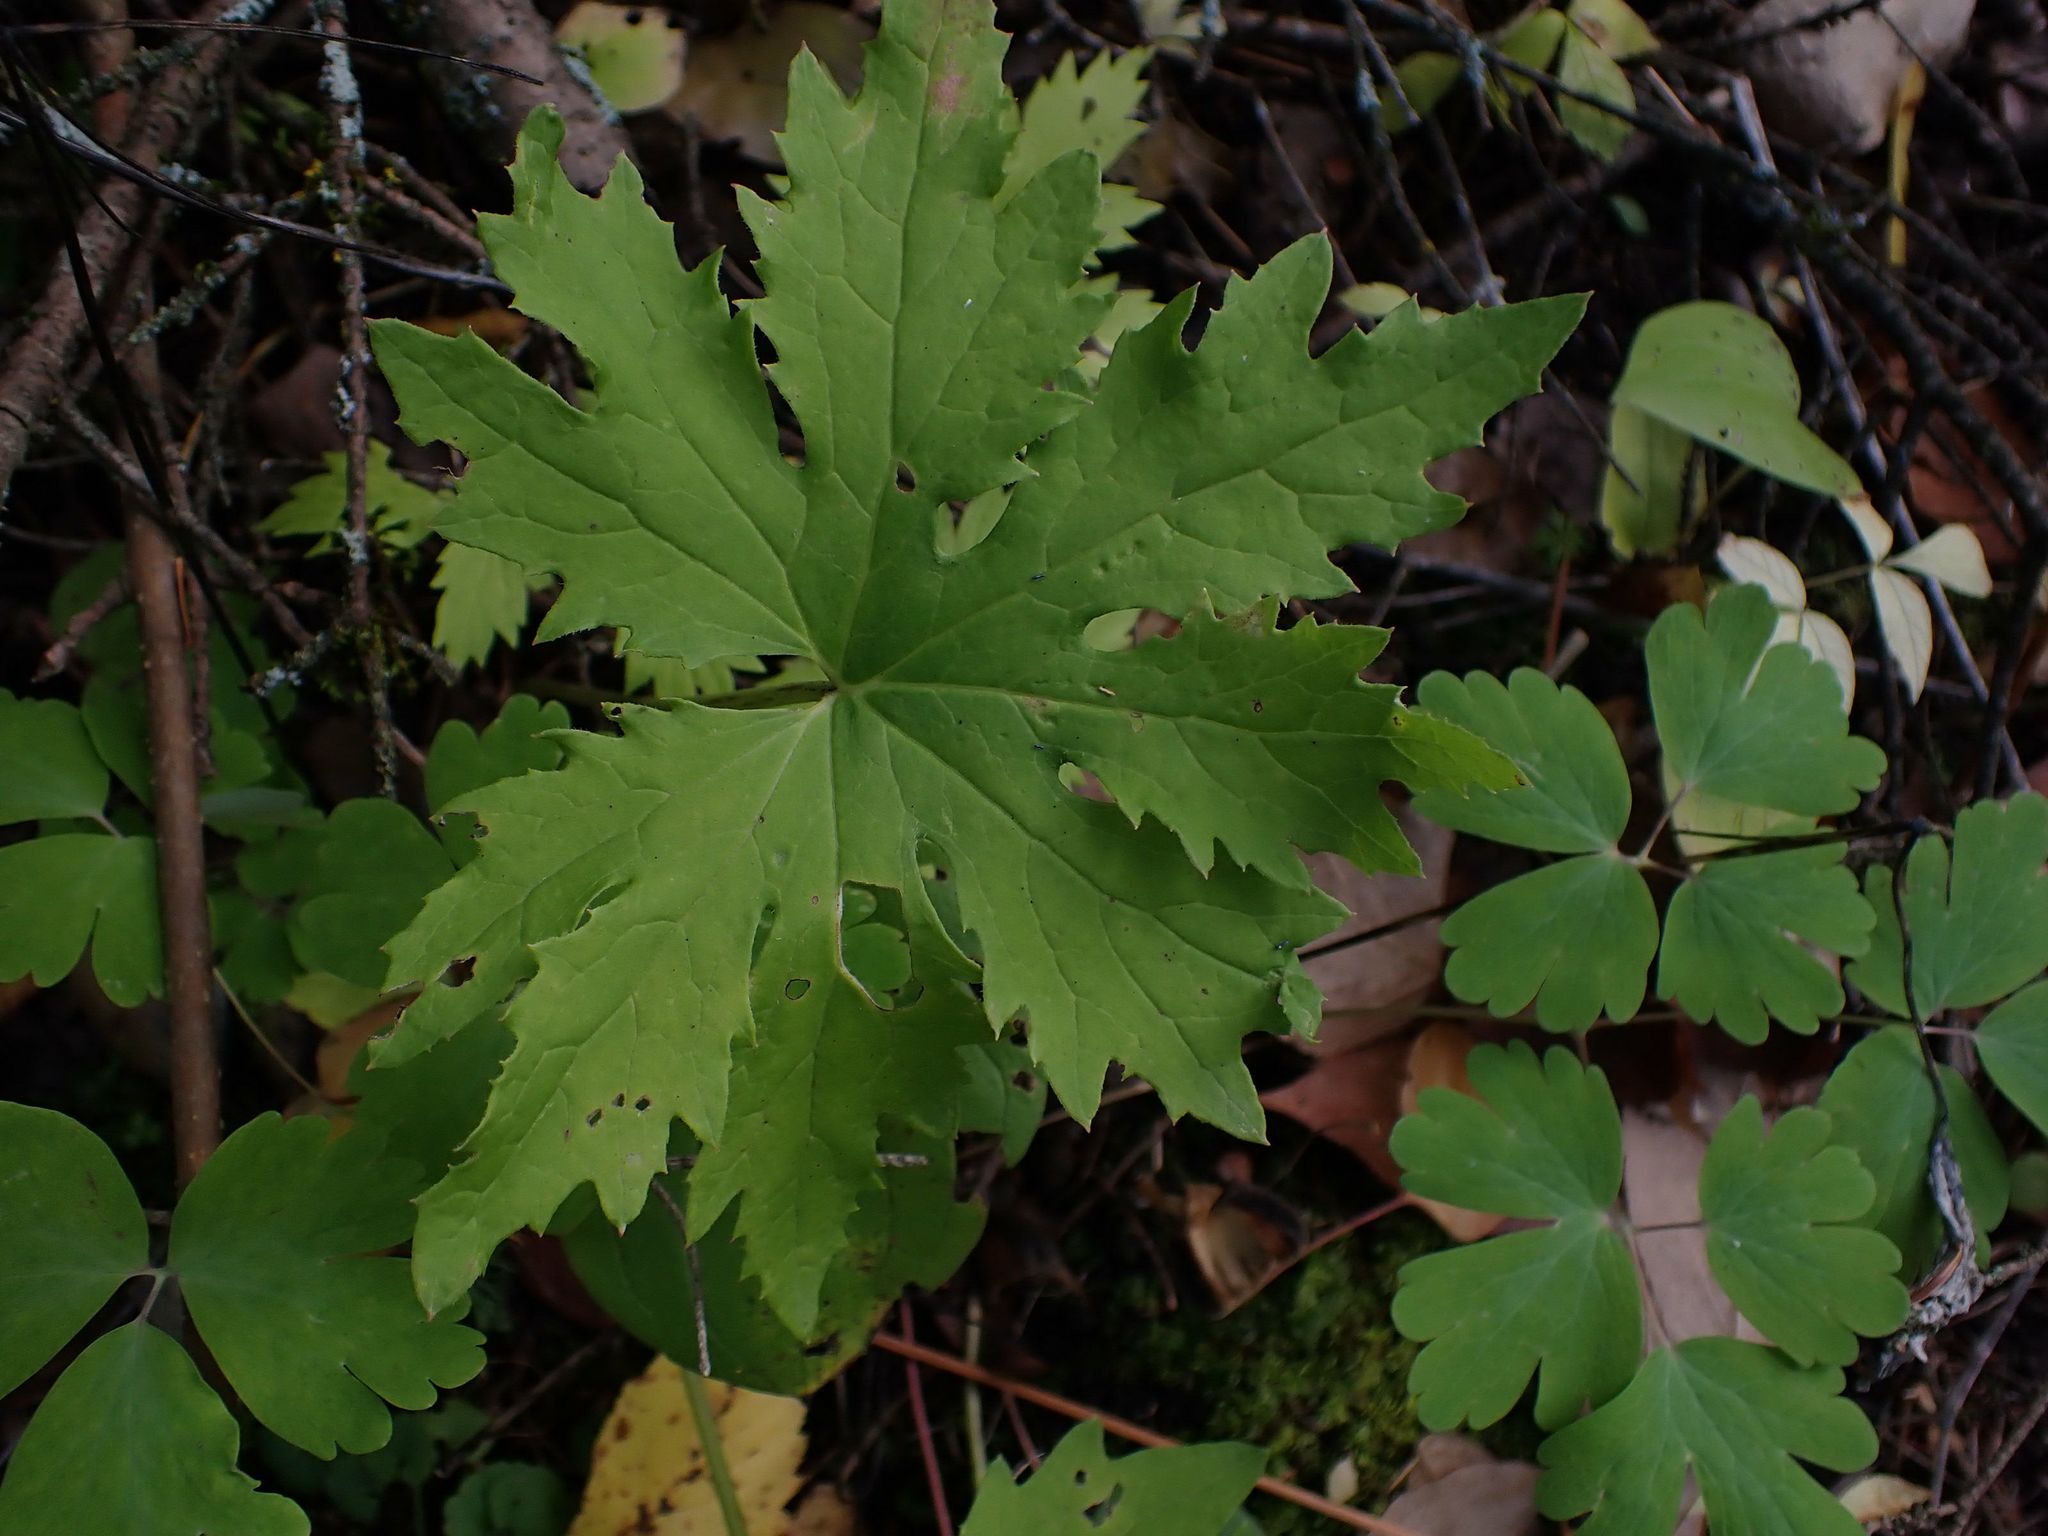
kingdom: Plantae
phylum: Tracheophyta
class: Magnoliopsida
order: Asterales
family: Asteraceae
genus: Petasites
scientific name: Petasites frigidus
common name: Arctic butterbur
